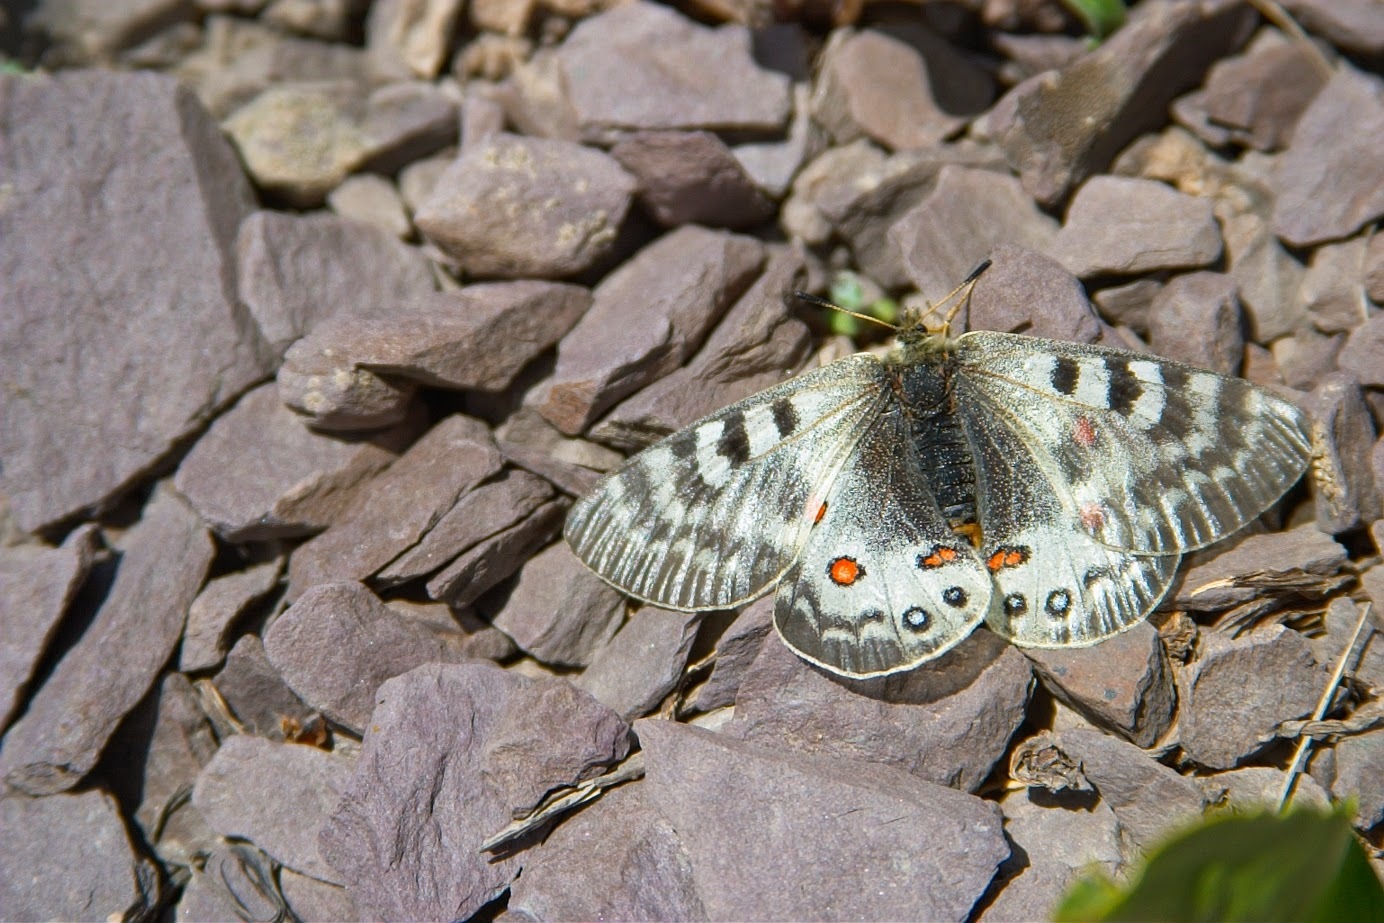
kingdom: Animalia
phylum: Arthropoda
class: Insecta
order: Lepidoptera
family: Papilionidae
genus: Parnassius
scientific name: Parnassius delphius
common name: Banded apollo
